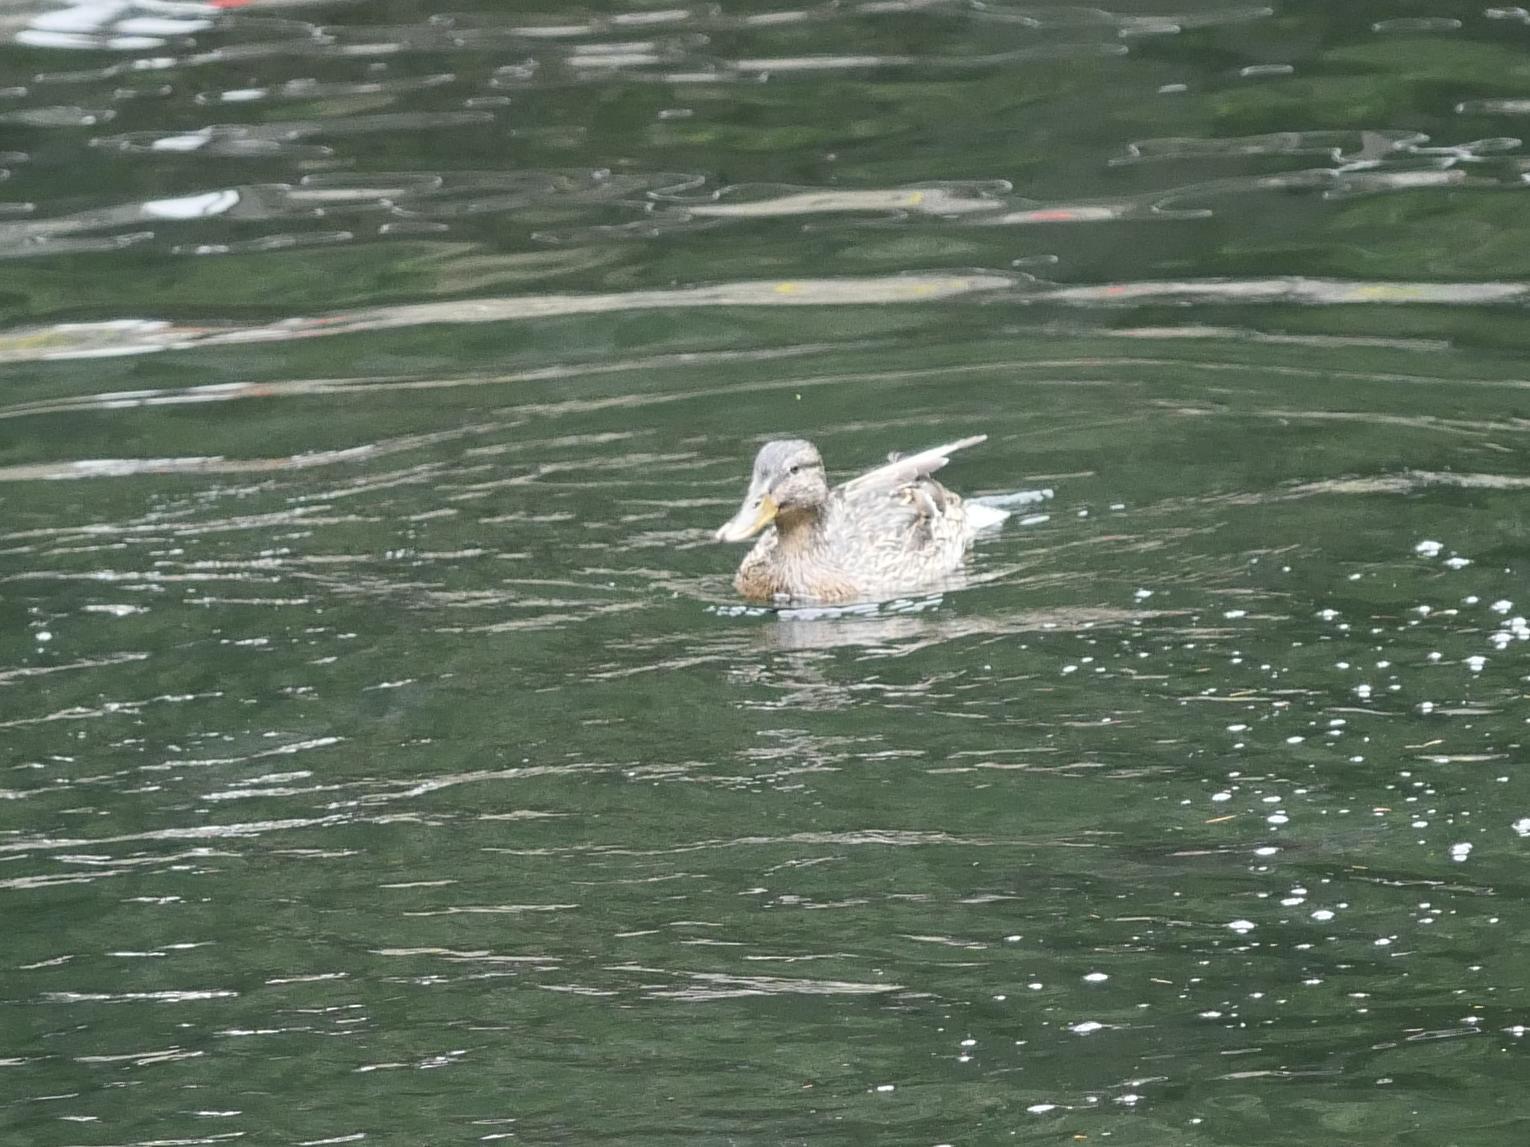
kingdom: Animalia
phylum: Chordata
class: Aves
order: Anseriformes
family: Anatidae
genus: Anas
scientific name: Anas platyrhynchos
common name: Mallard
